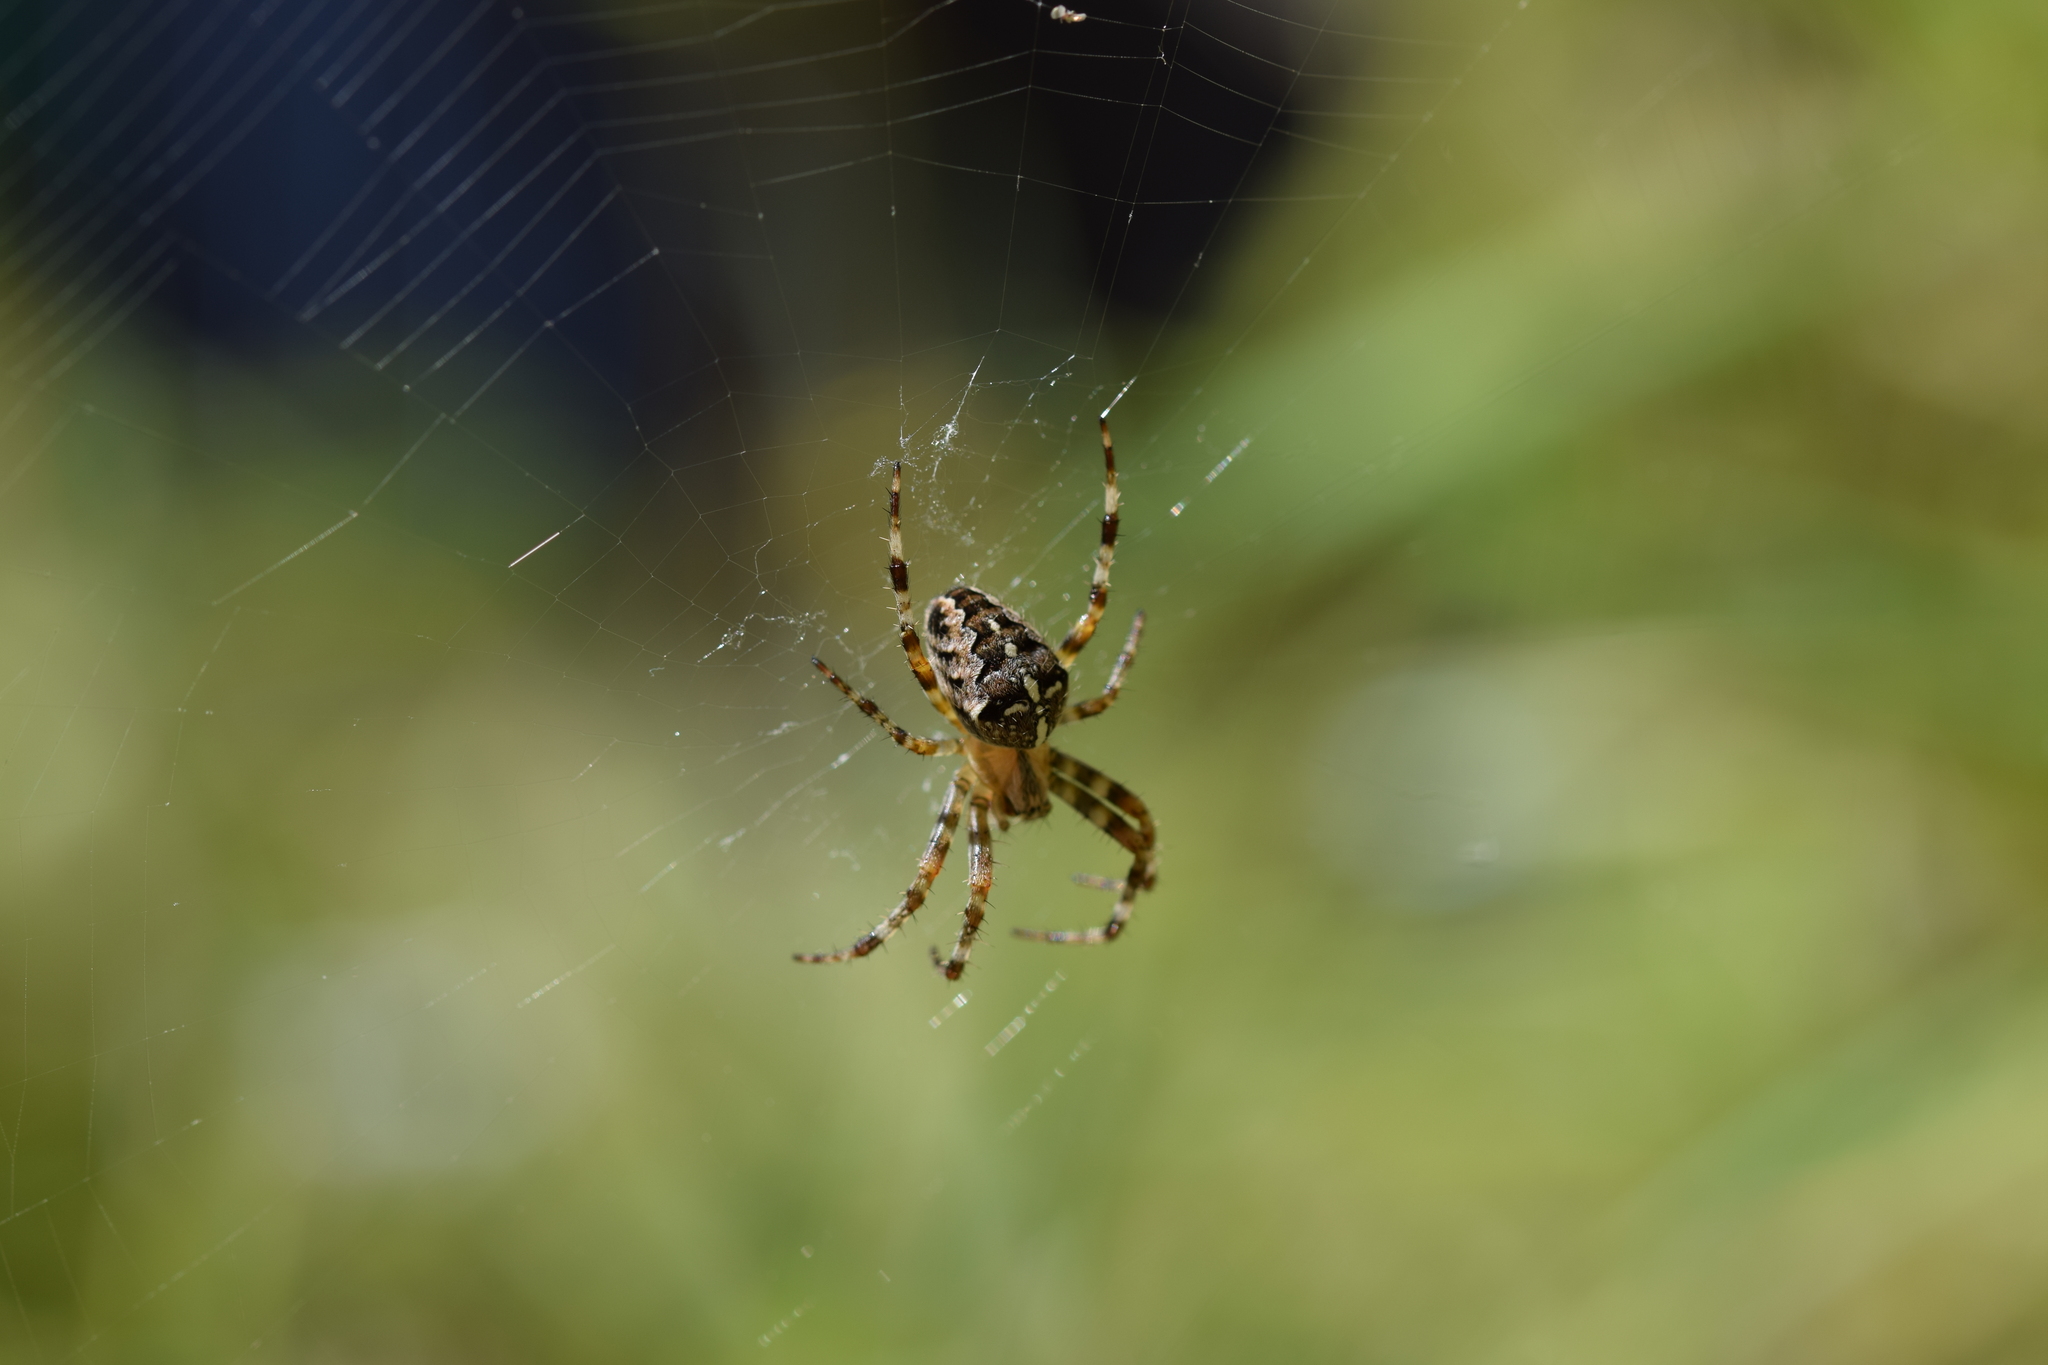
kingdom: Animalia
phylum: Arthropoda
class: Arachnida
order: Araneae
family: Araneidae
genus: Araneus
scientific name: Araneus diadematus
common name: Cross orbweaver
